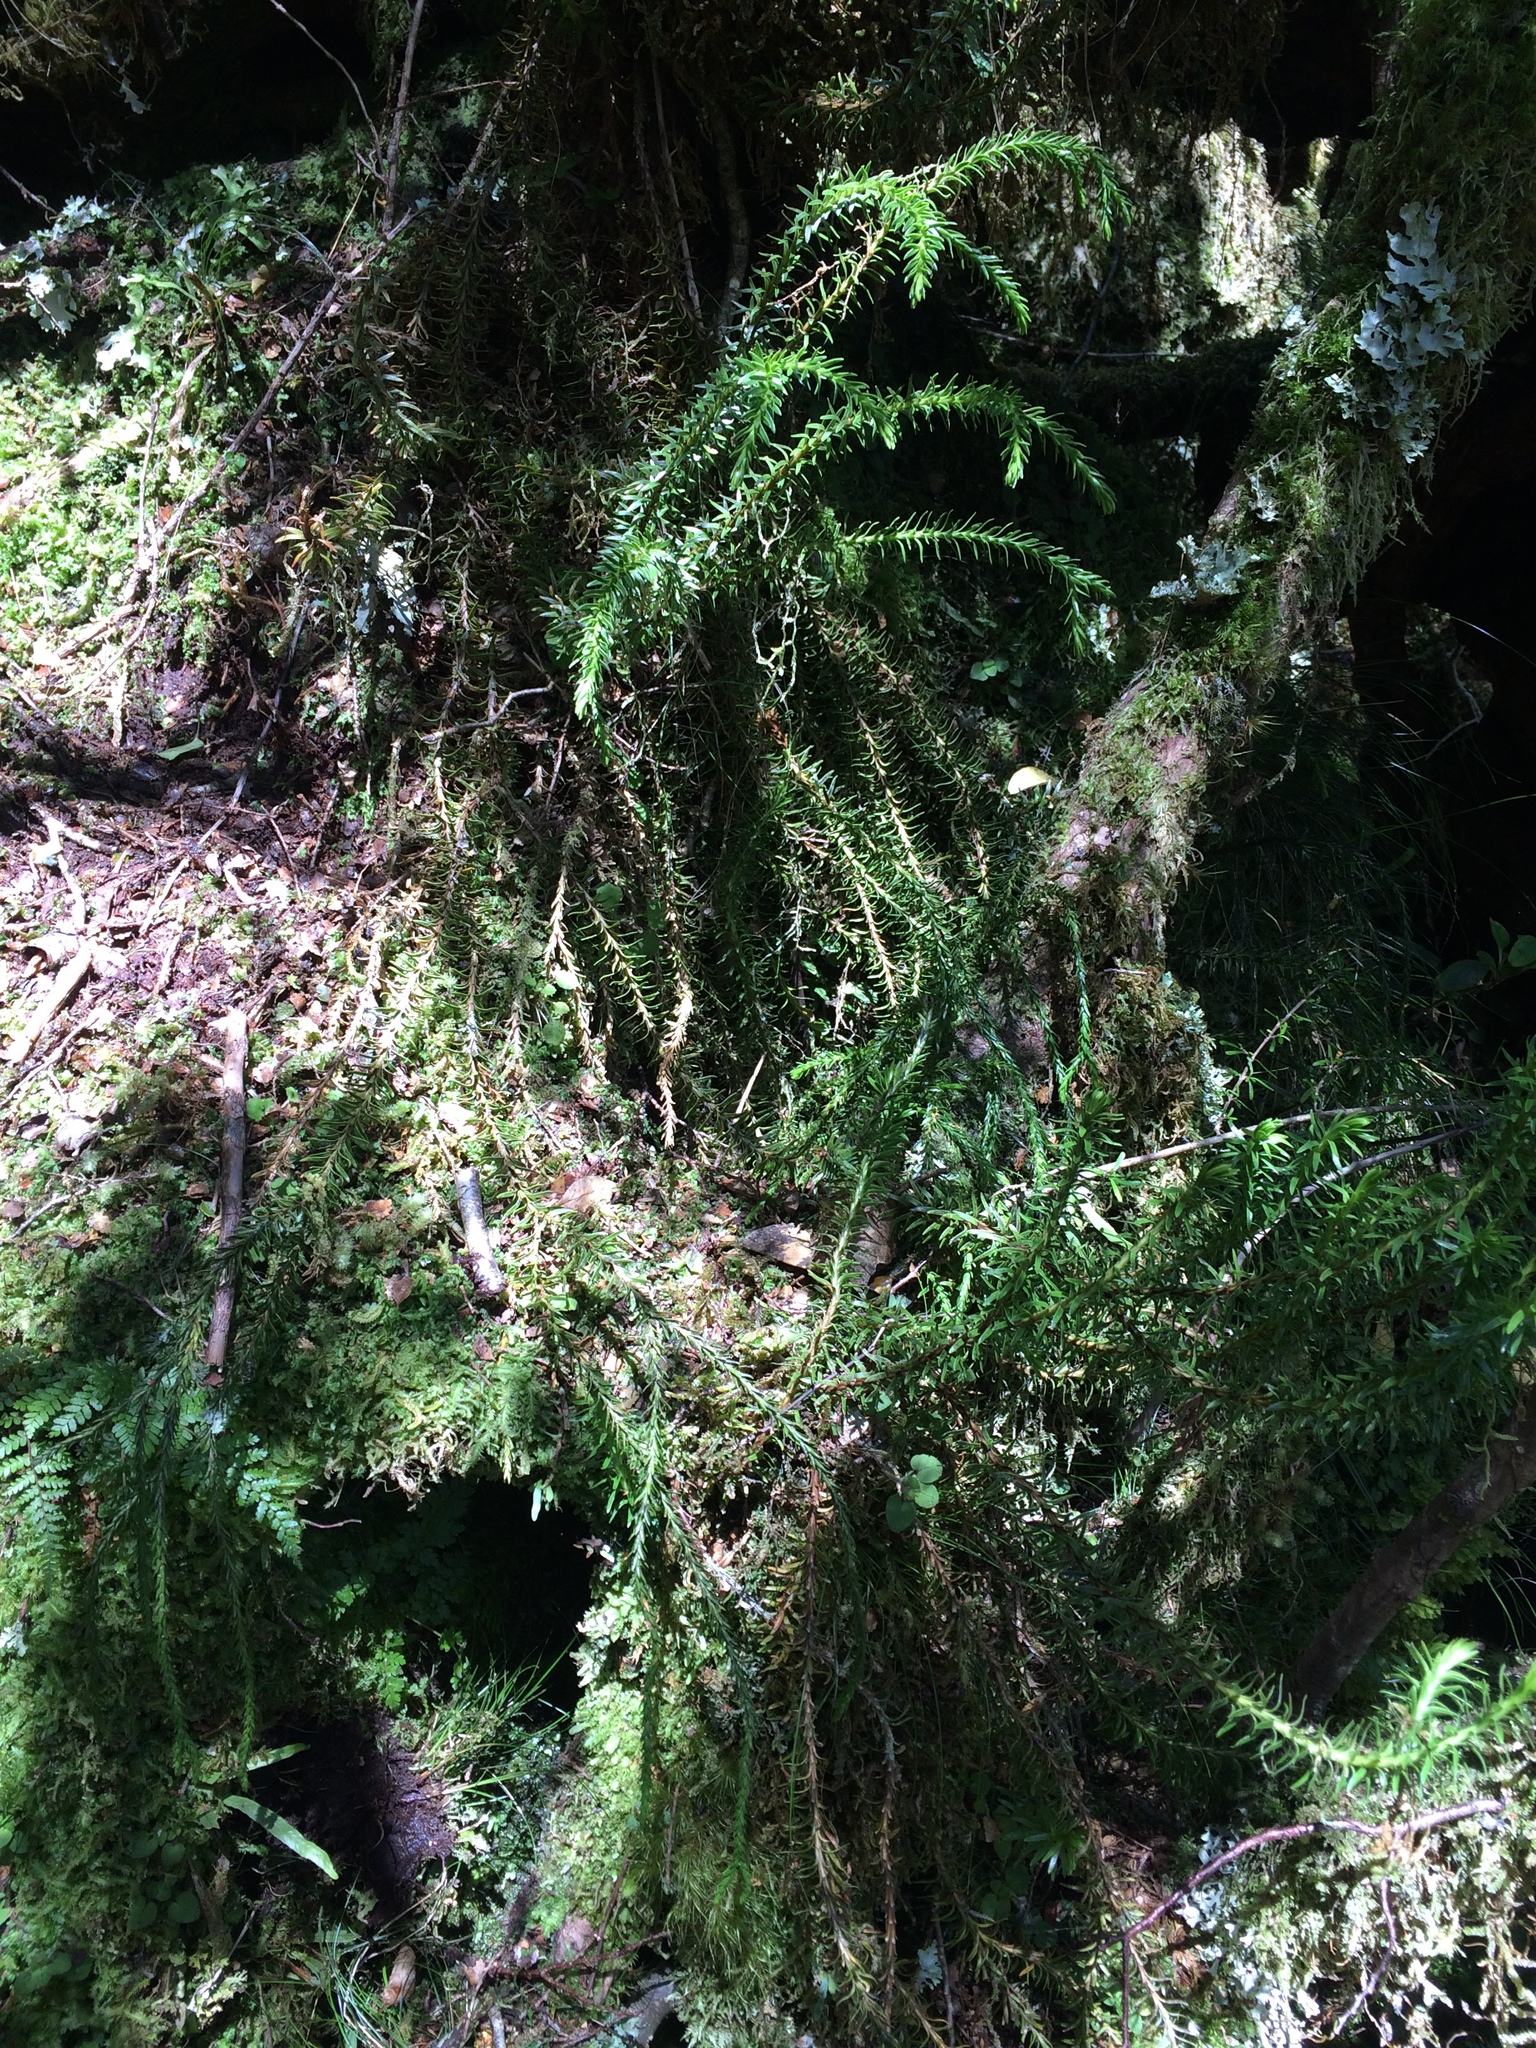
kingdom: Plantae
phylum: Tracheophyta
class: Lycopodiopsida
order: Lycopodiales
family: Lycopodiaceae
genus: Phlegmariurus
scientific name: Phlegmariurus varius
